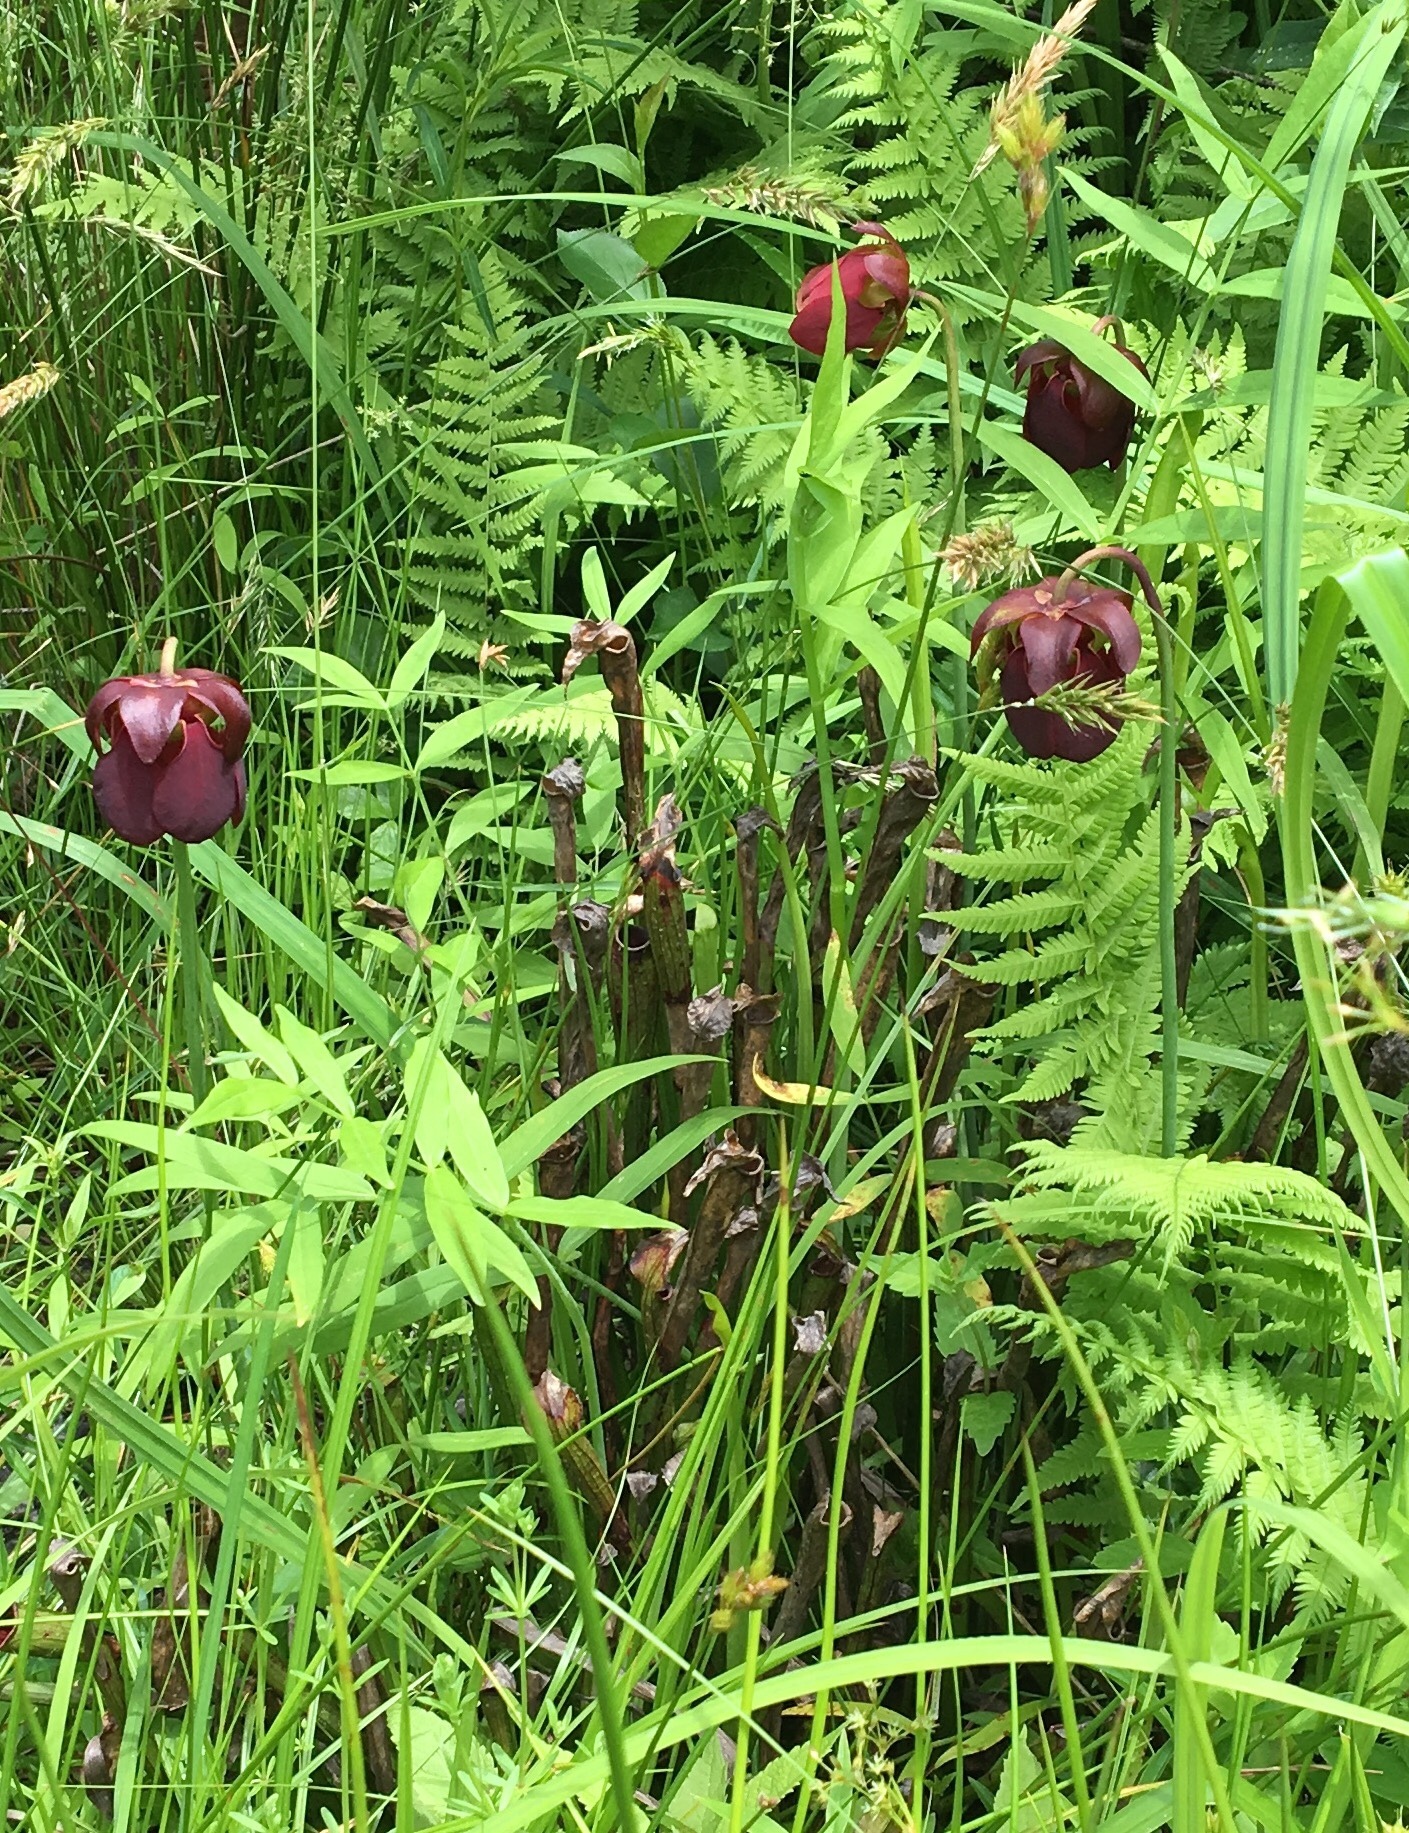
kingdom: Plantae
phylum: Tracheophyta
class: Magnoliopsida
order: Ericales
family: Sarraceniaceae
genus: Sarracenia
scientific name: Sarracenia rubra
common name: Sweet pitcherplant
